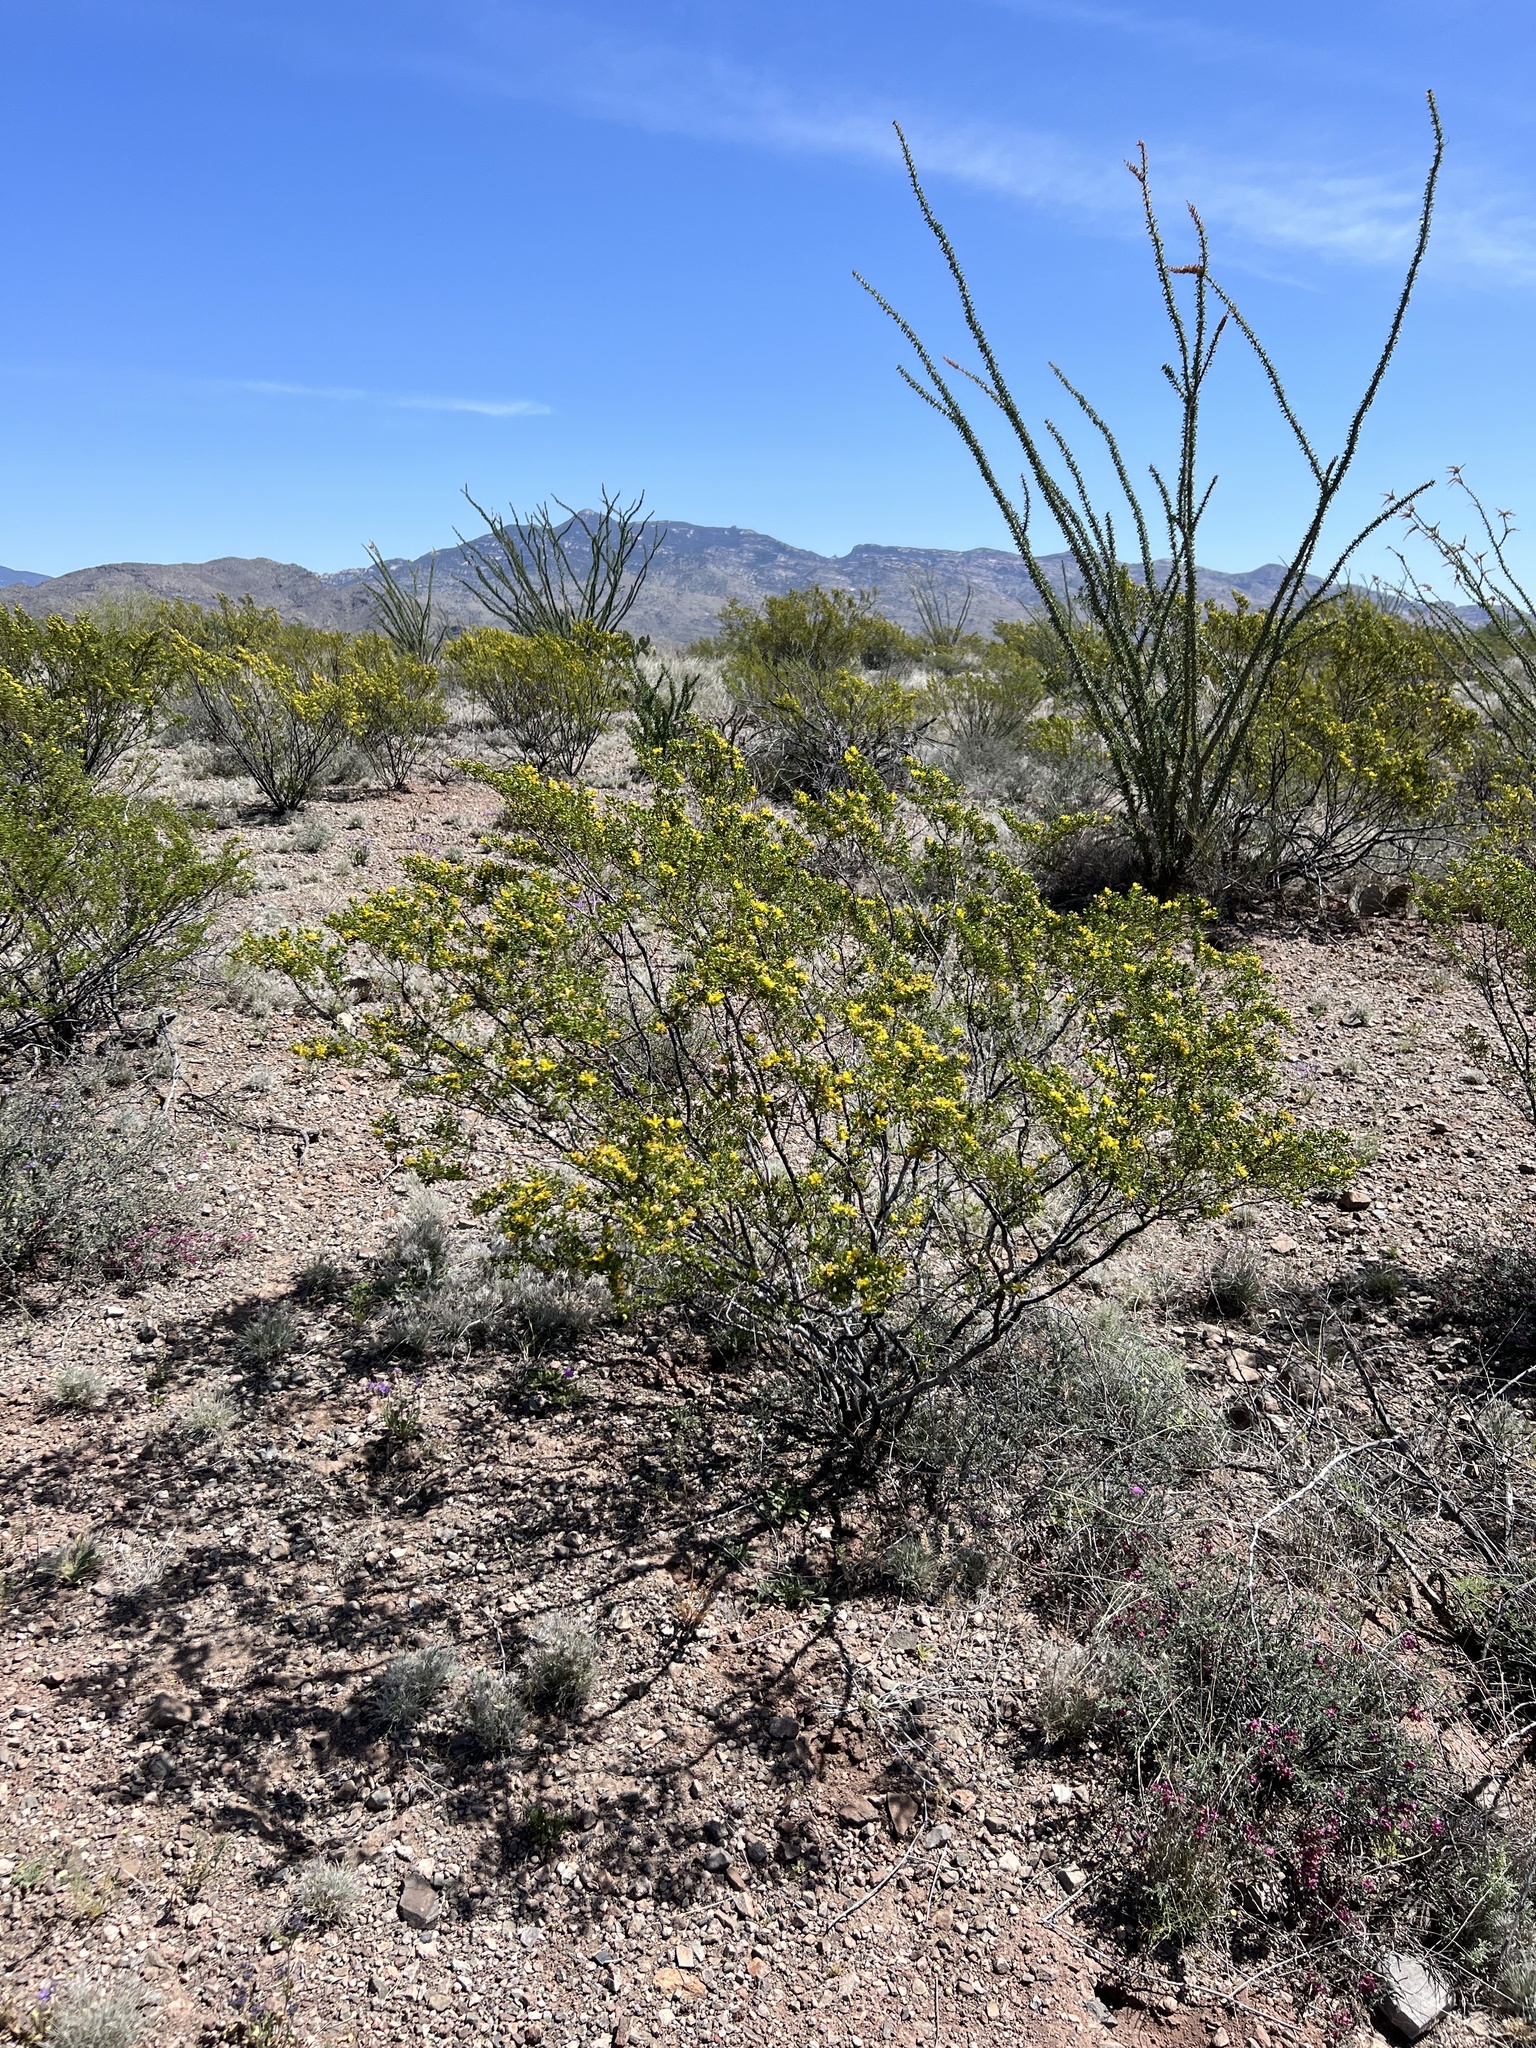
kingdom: Plantae
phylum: Tracheophyta
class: Magnoliopsida
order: Zygophyllales
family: Zygophyllaceae
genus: Larrea
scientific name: Larrea tridentata
